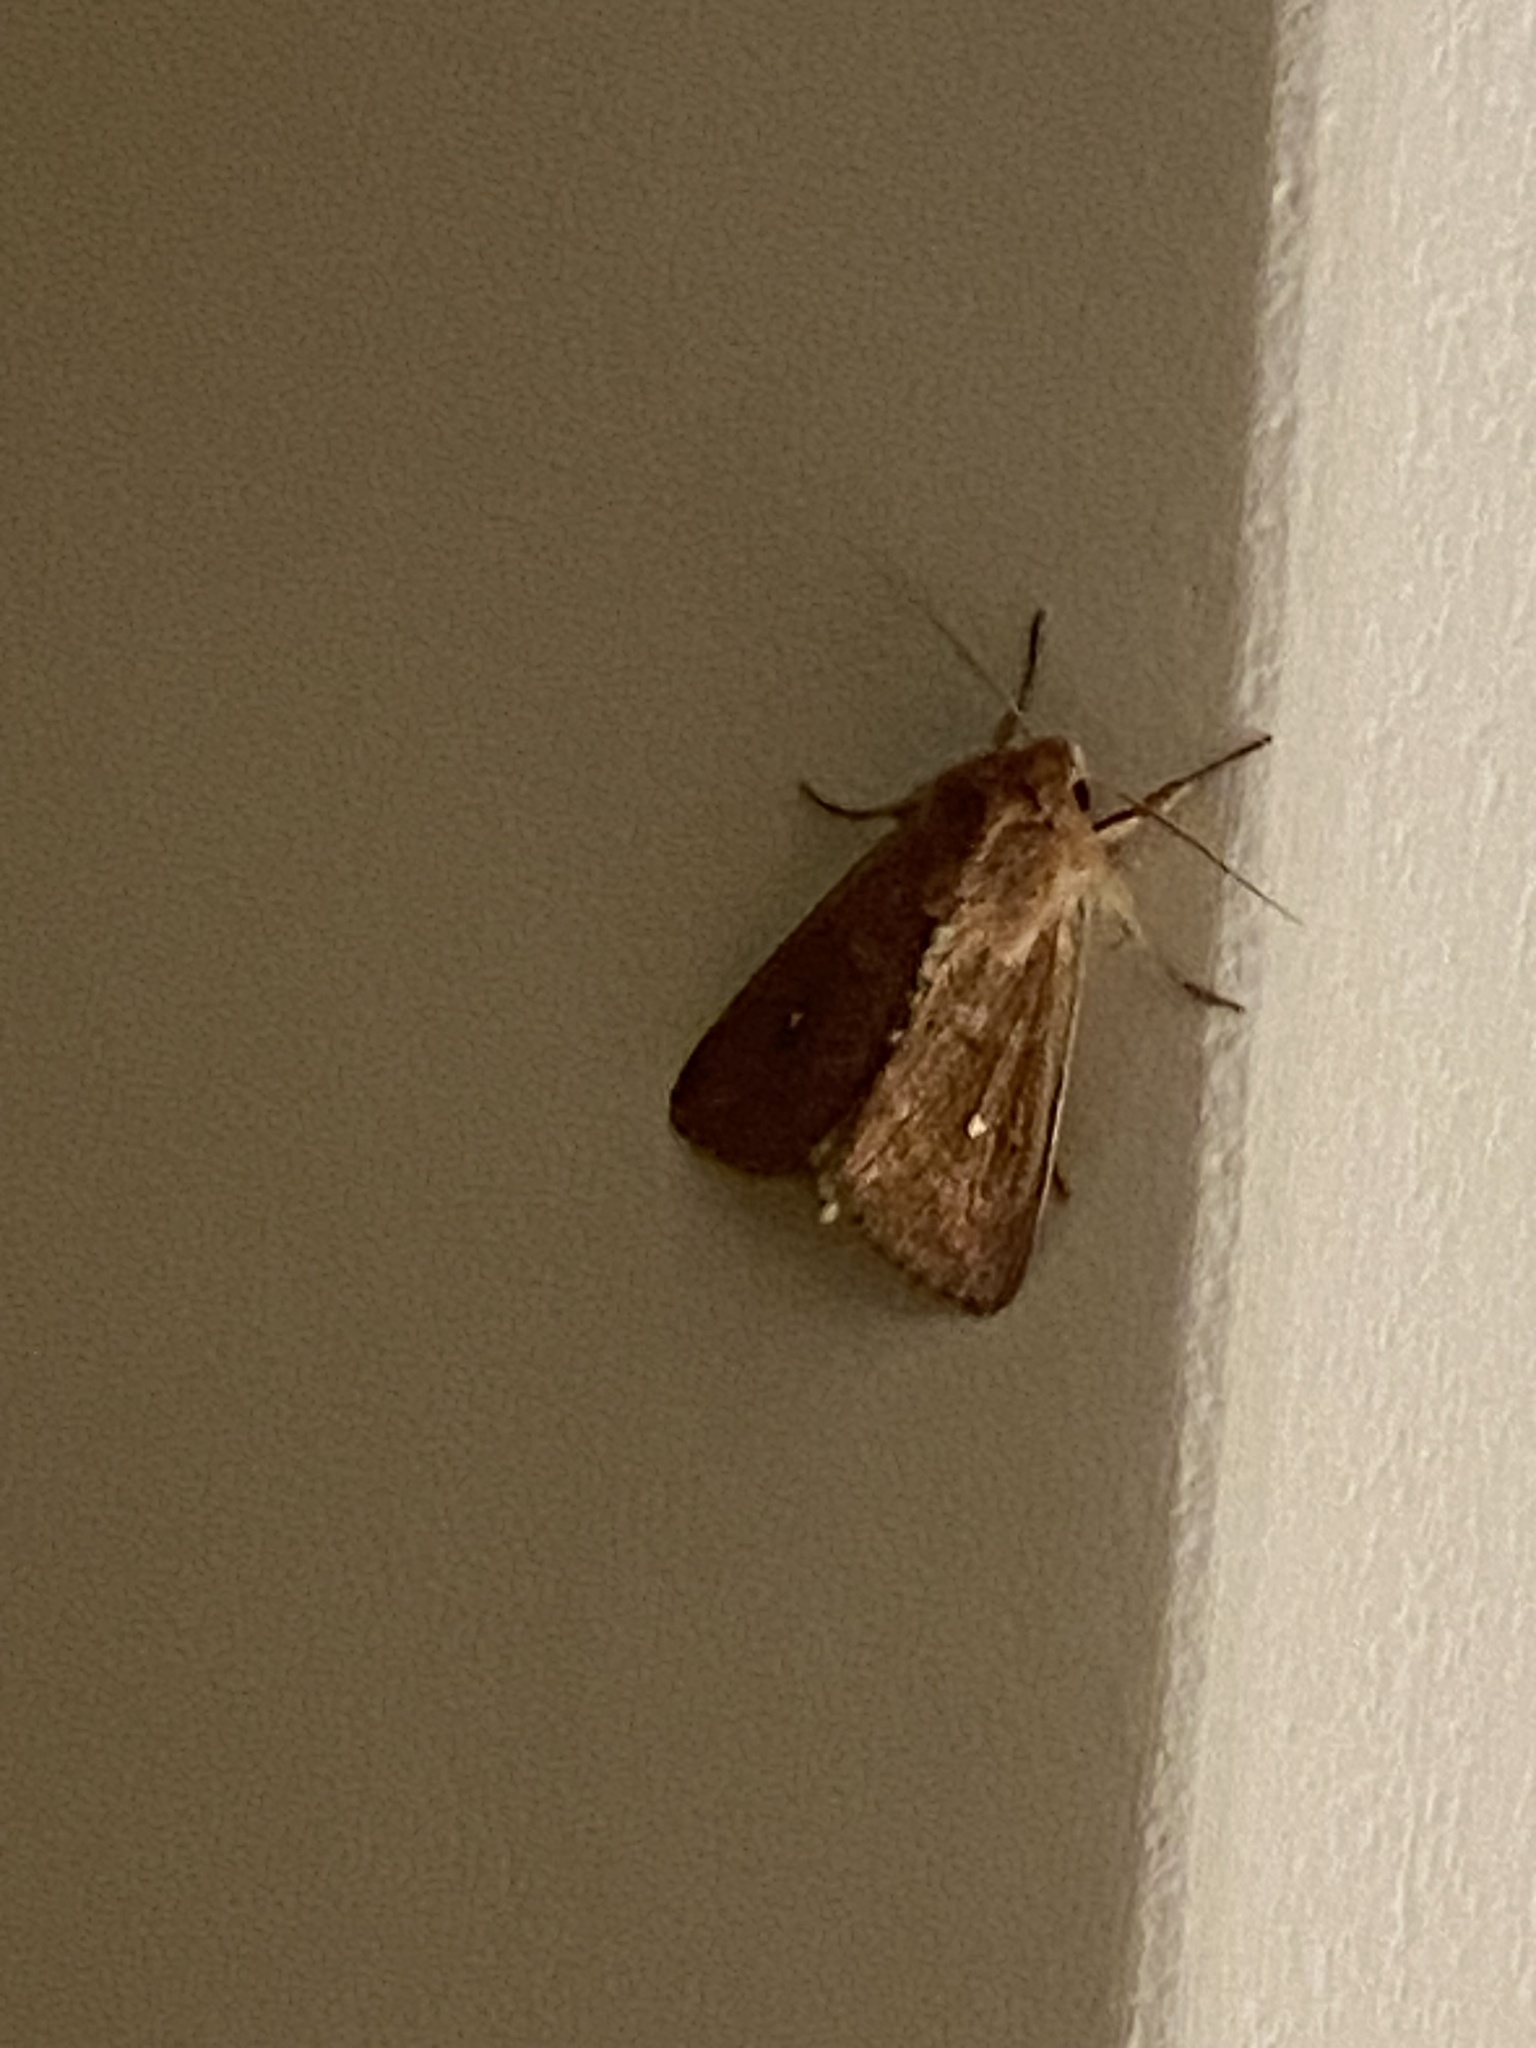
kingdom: Animalia
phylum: Arthropoda
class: Insecta
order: Lepidoptera
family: Noctuidae
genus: Mythimna
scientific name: Mythimna albipuncta
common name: White-point
